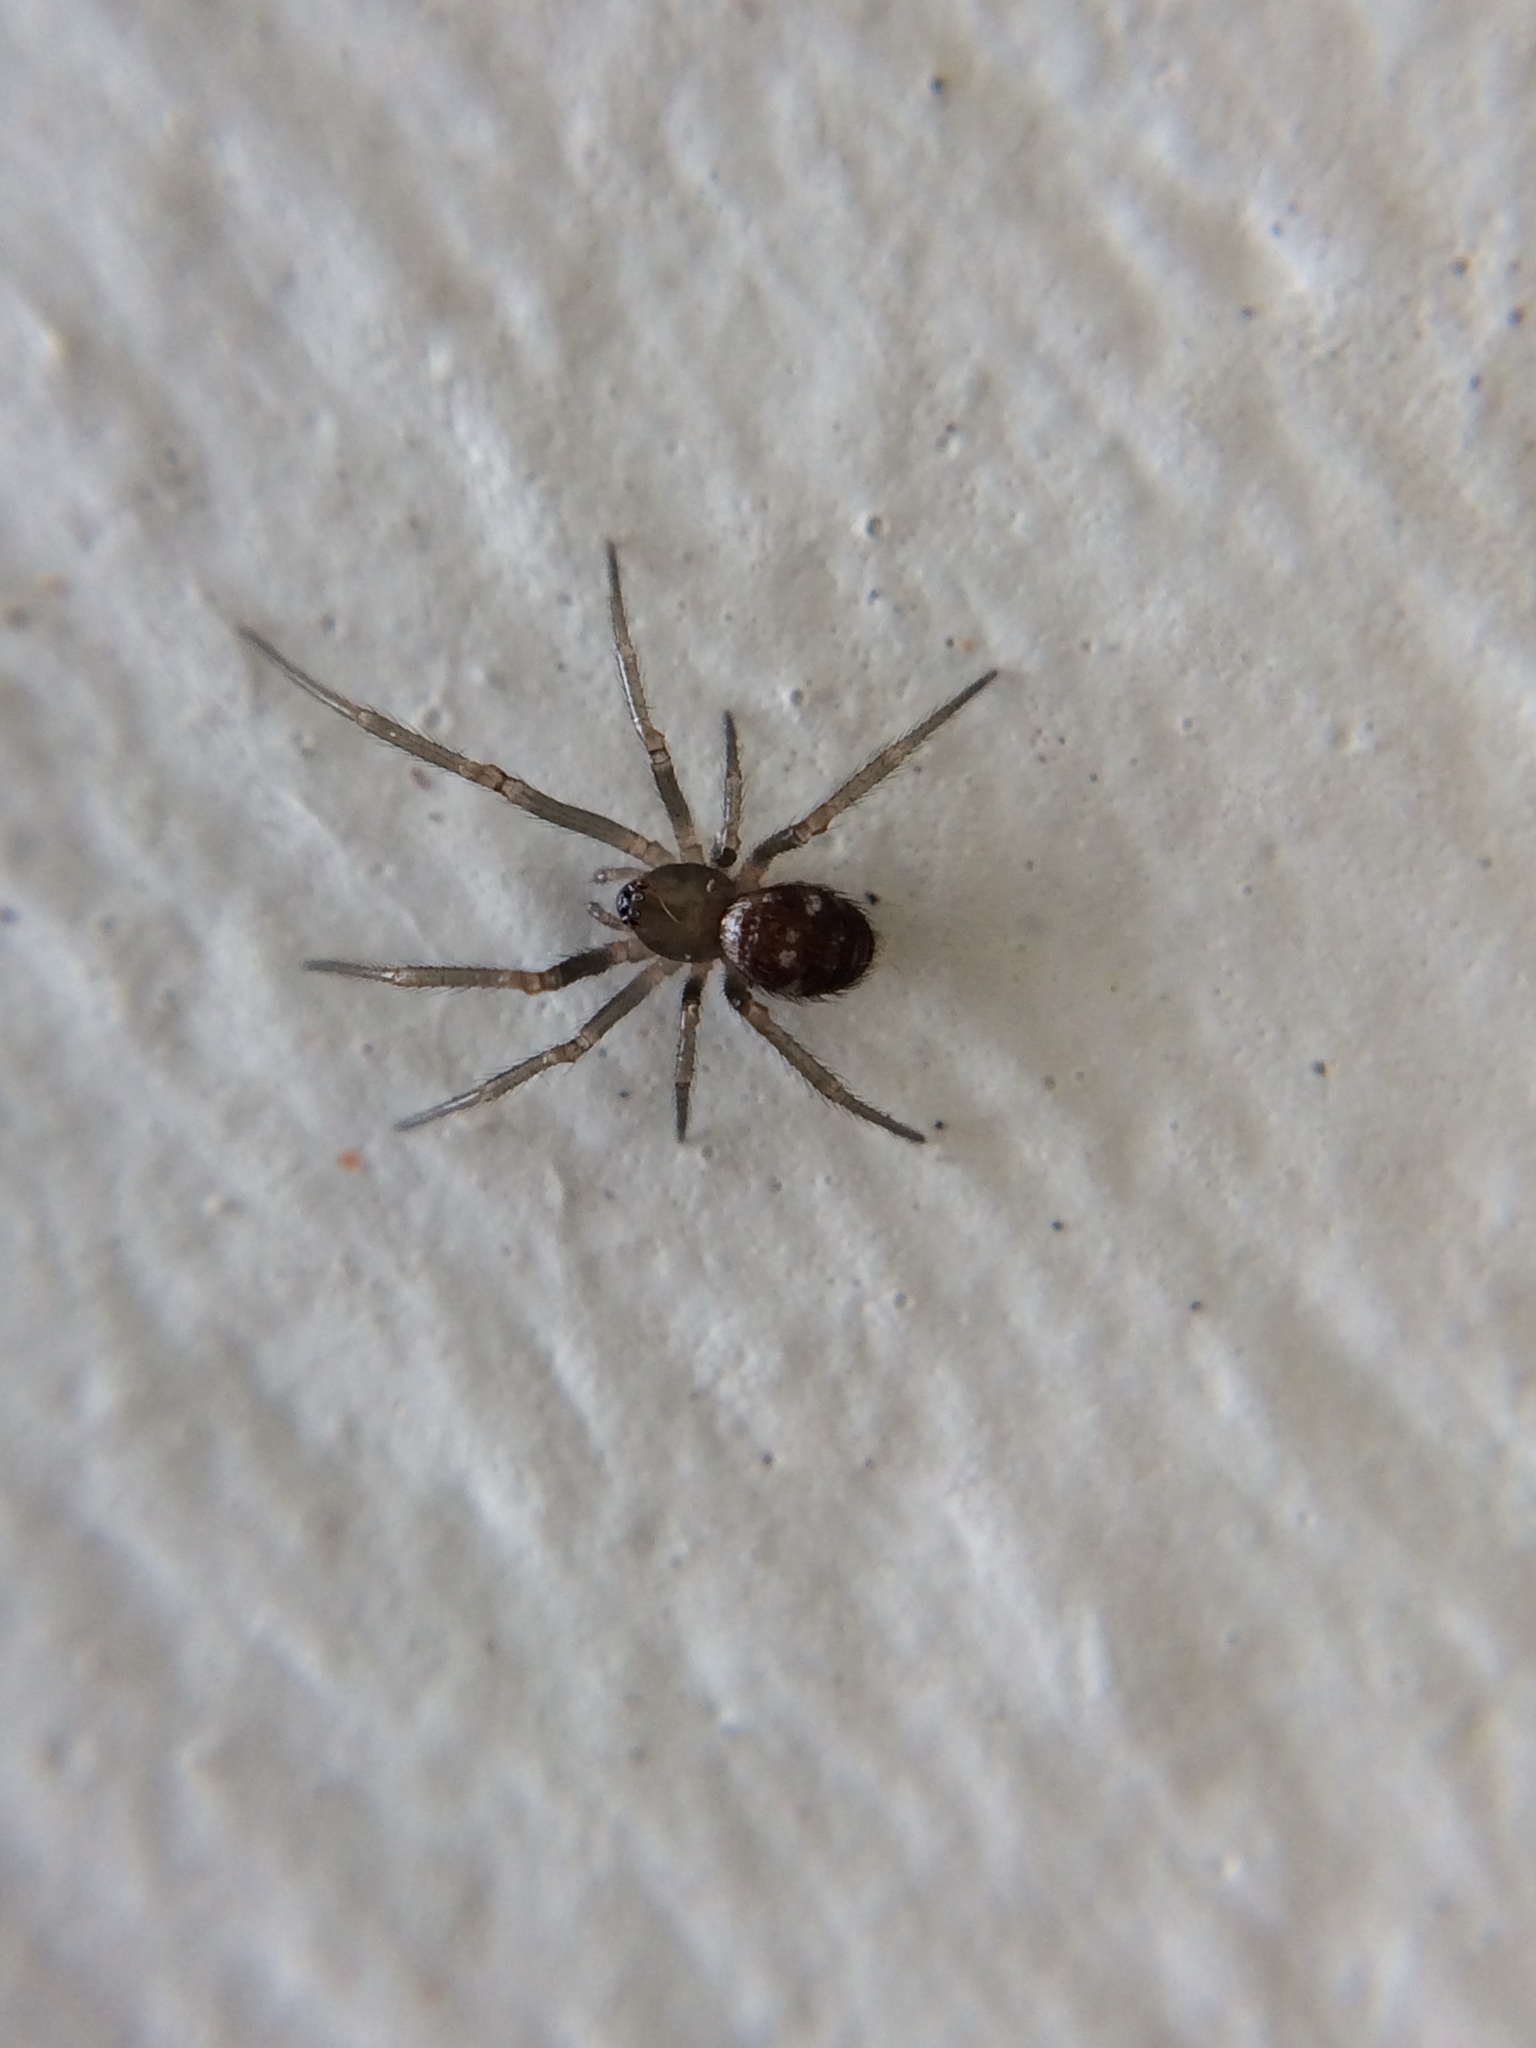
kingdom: Animalia
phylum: Arthropoda
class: Arachnida
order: Araneae
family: Theridiidae
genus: Steatoda
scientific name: Steatoda grossa
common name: False black widow
